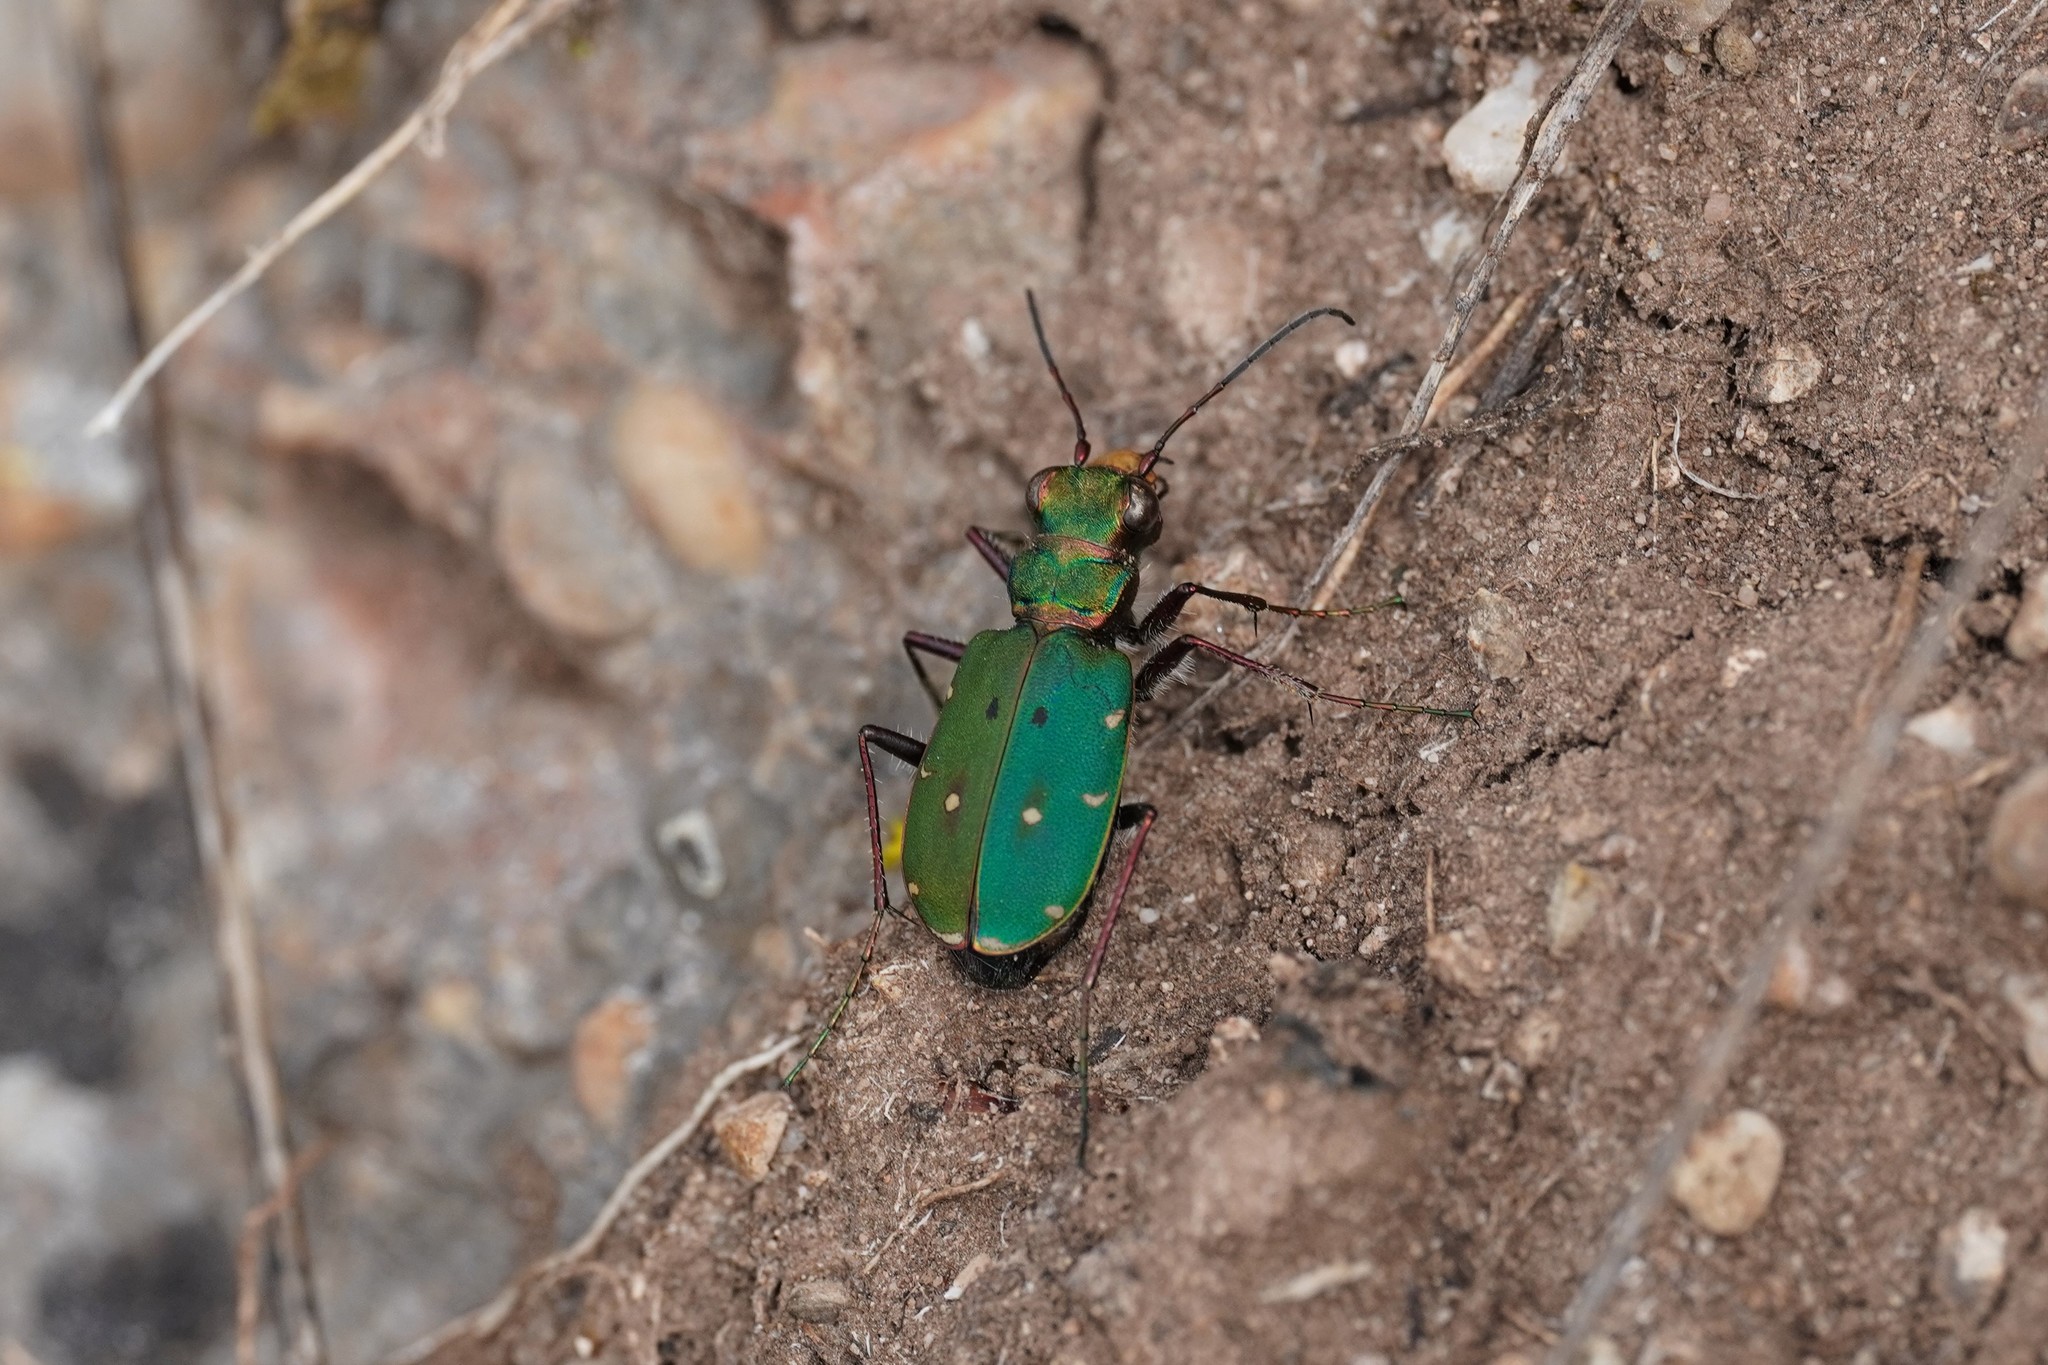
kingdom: Animalia
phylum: Arthropoda
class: Insecta
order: Coleoptera
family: Carabidae
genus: Cicindela
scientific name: Cicindela campestris
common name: Common tiger beetle
